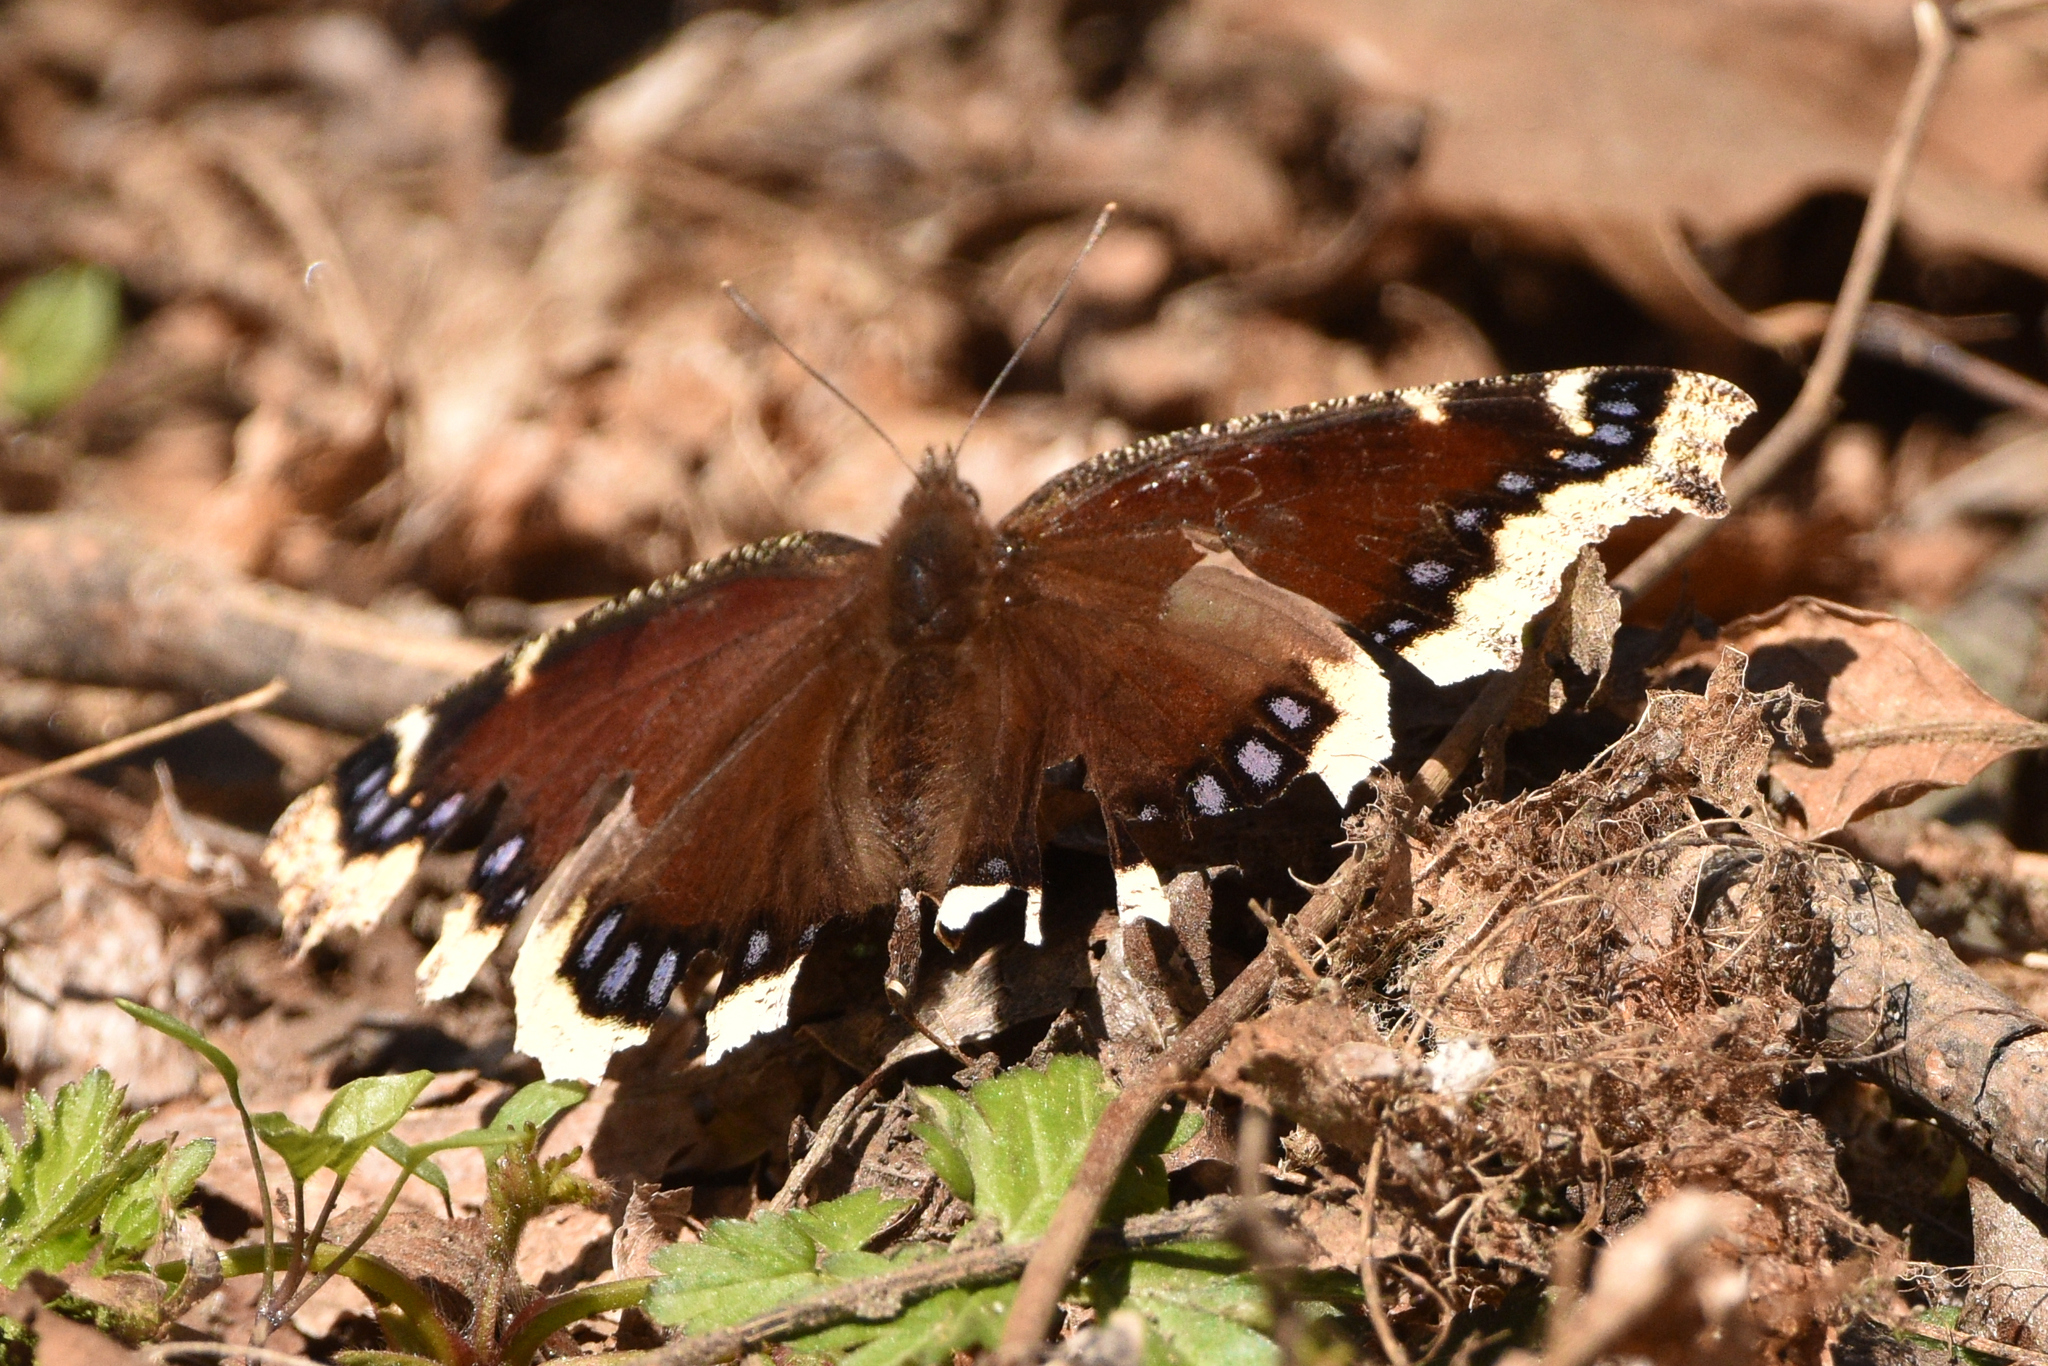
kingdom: Animalia
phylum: Arthropoda
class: Insecta
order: Lepidoptera
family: Nymphalidae
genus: Nymphalis
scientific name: Nymphalis antiopa
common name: Camberwell beauty
